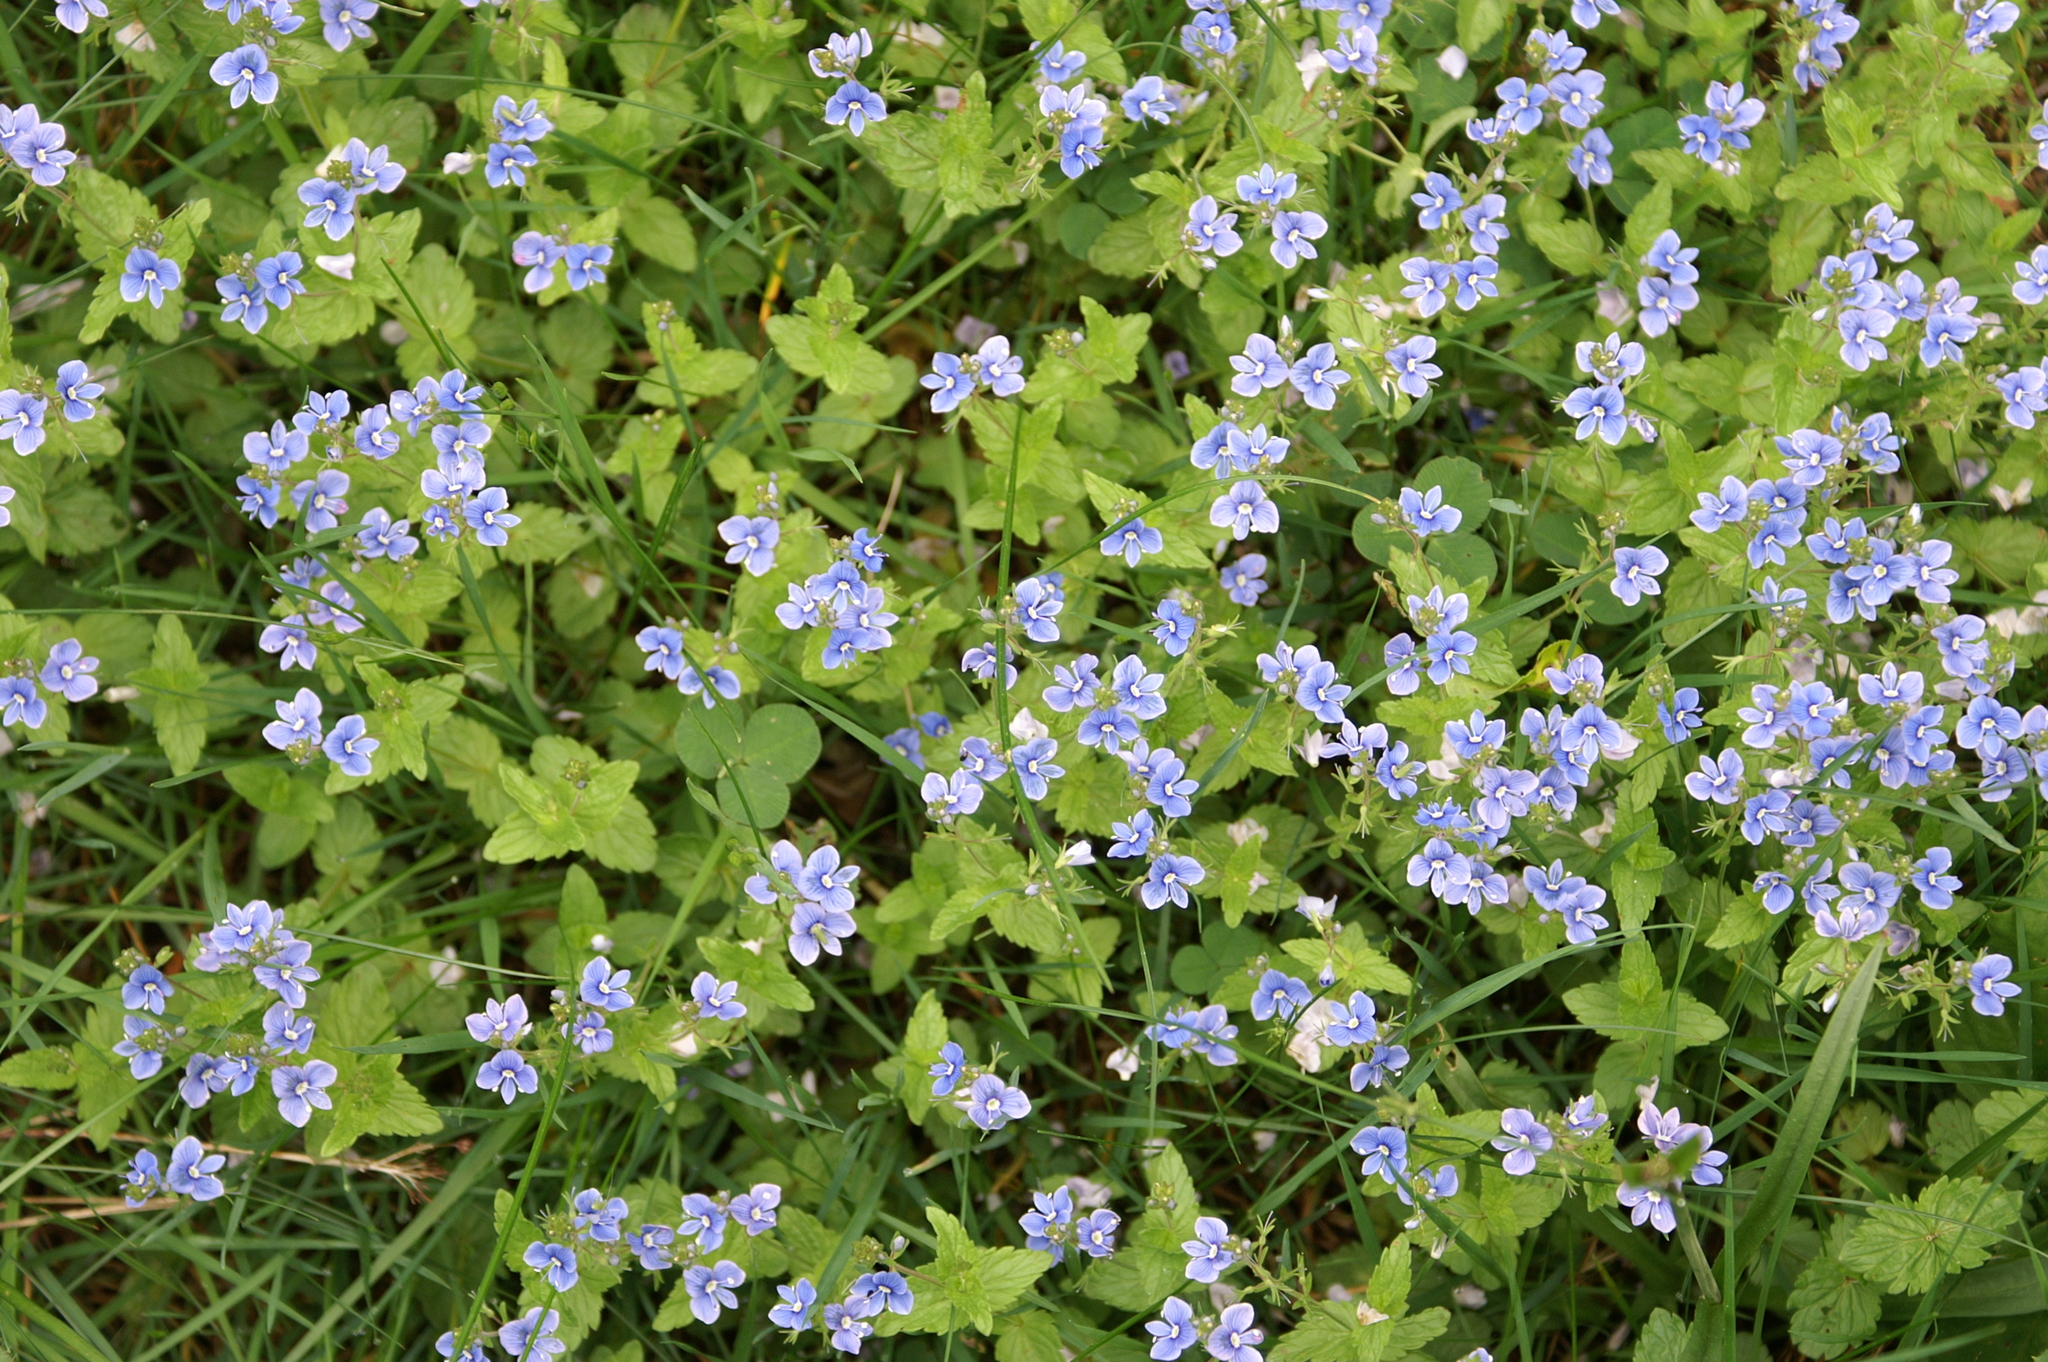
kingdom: Plantae
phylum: Tracheophyta
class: Magnoliopsida
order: Lamiales
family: Plantaginaceae
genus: Veronica
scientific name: Veronica chamaedrys
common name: Germander speedwell
